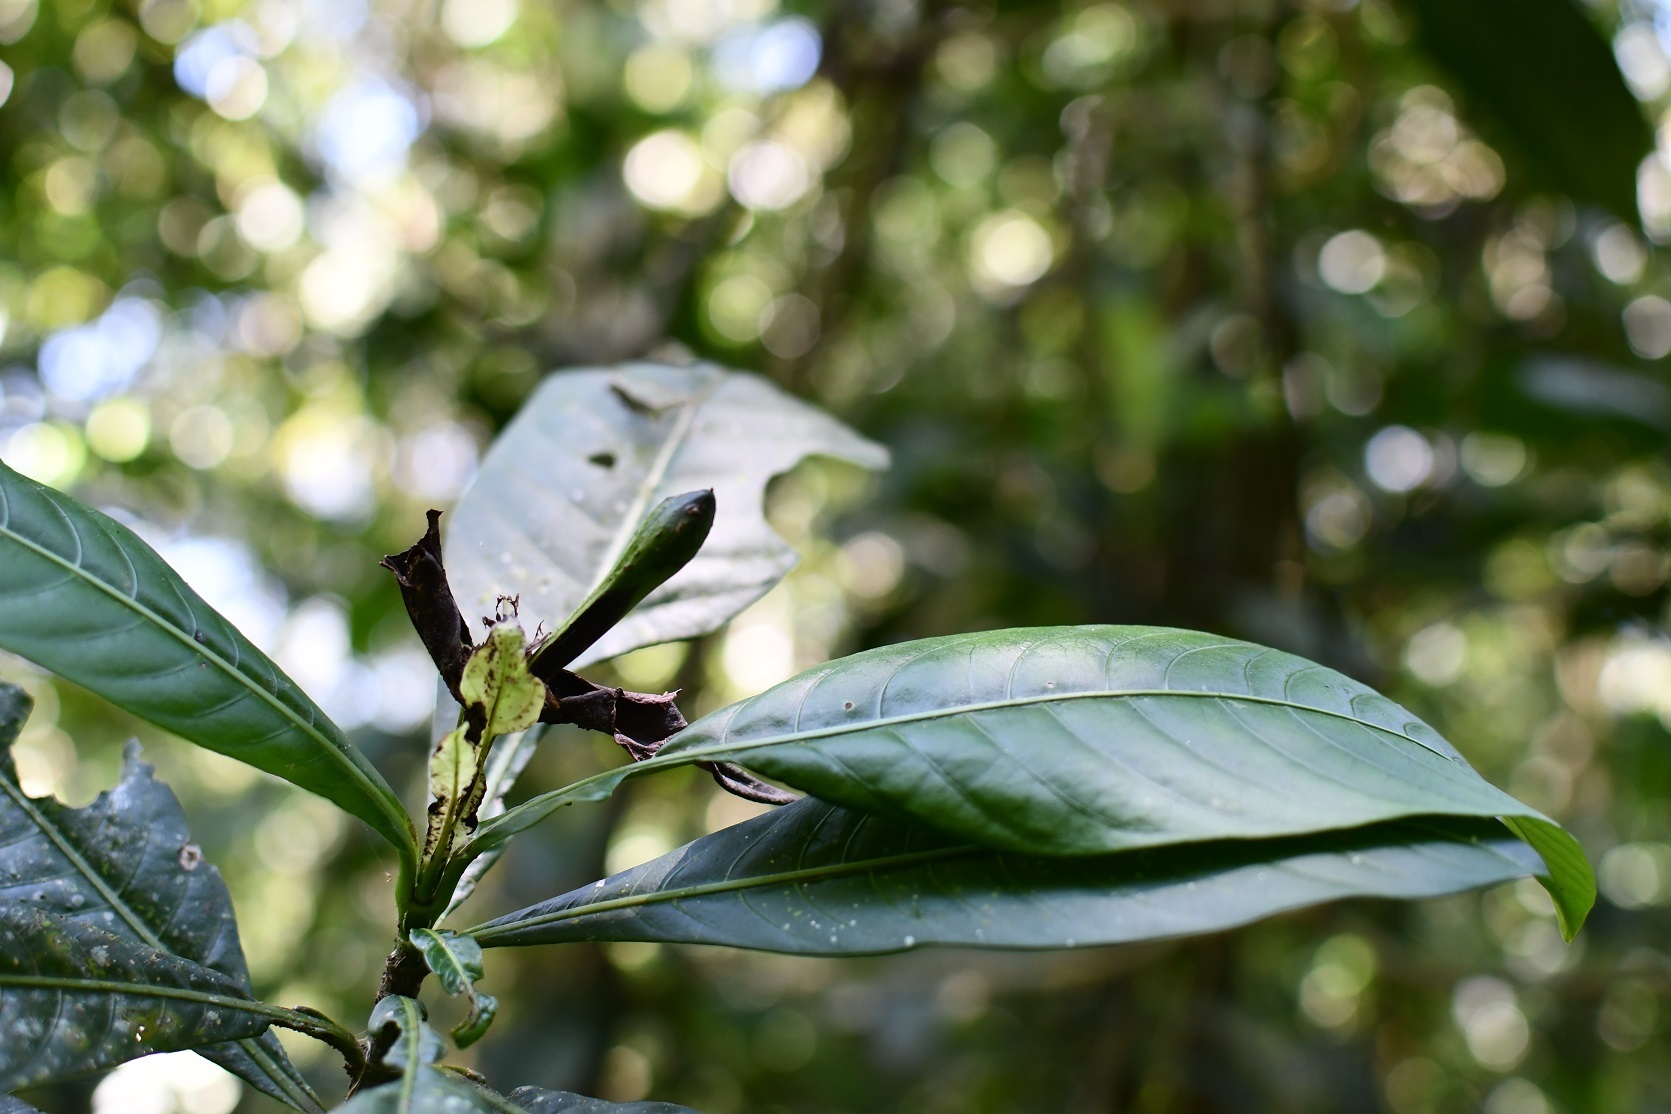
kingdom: Plantae
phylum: Tracheophyta
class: Magnoliopsida
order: Lamiales
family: Acanthaceae
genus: Justicia
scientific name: Justicia borrerae
